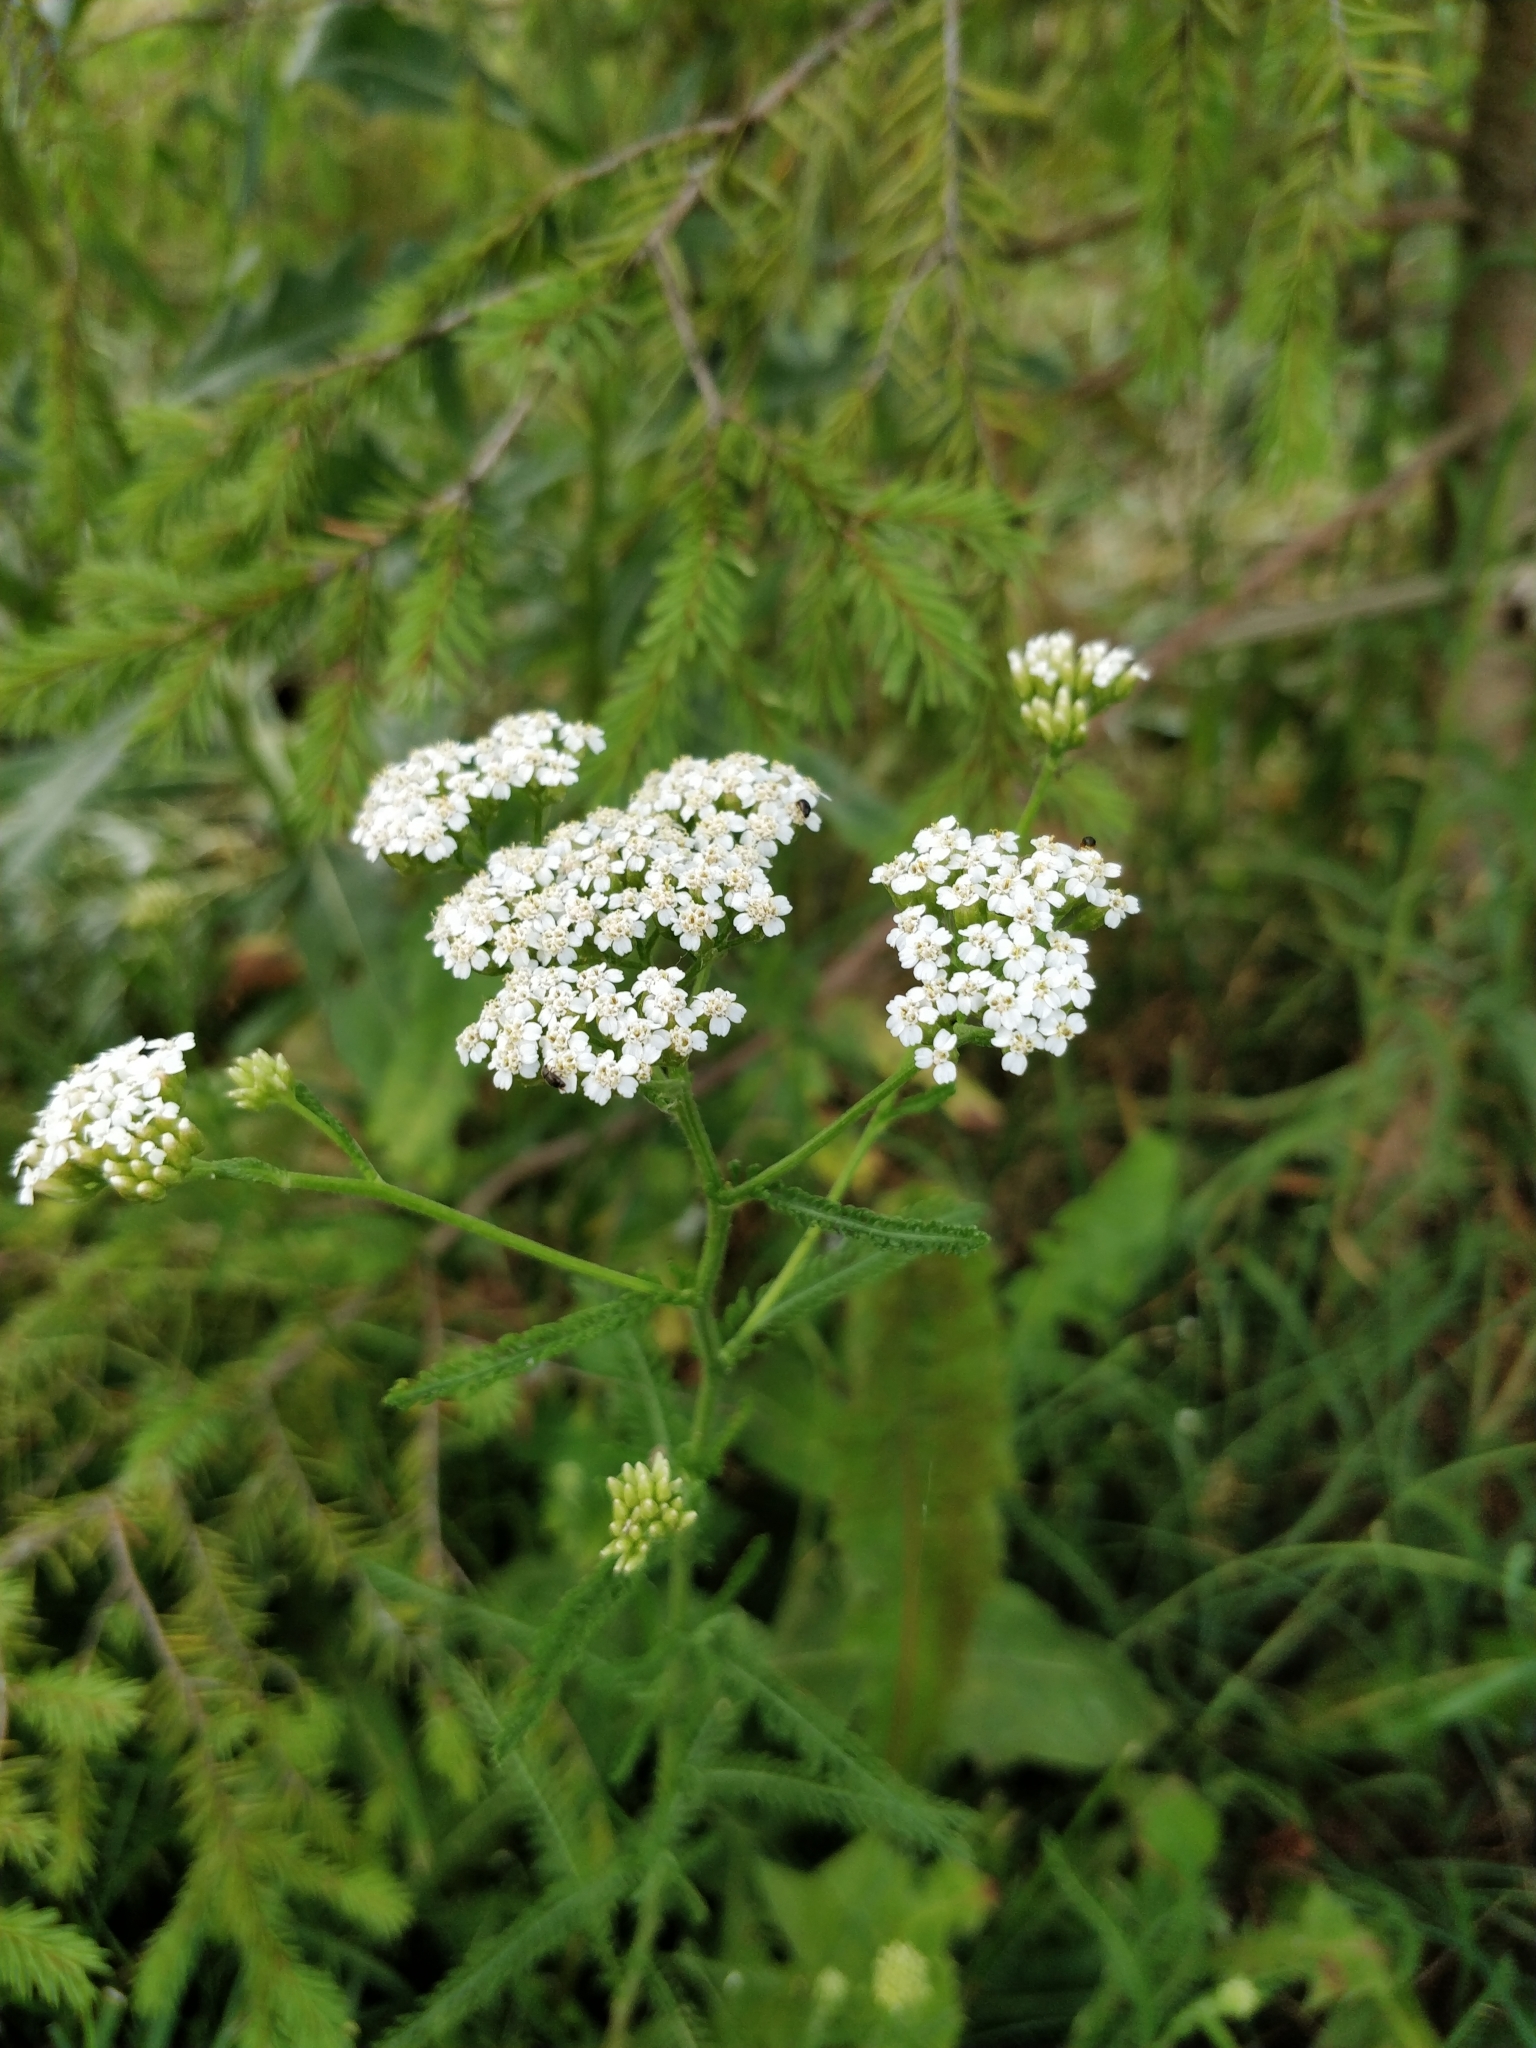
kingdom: Plantae
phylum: Tracheophyta
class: Magnoliopsida
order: Asterales
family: Asteraceae
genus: Achillea
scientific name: Achillea millefolium
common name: Yarrow
